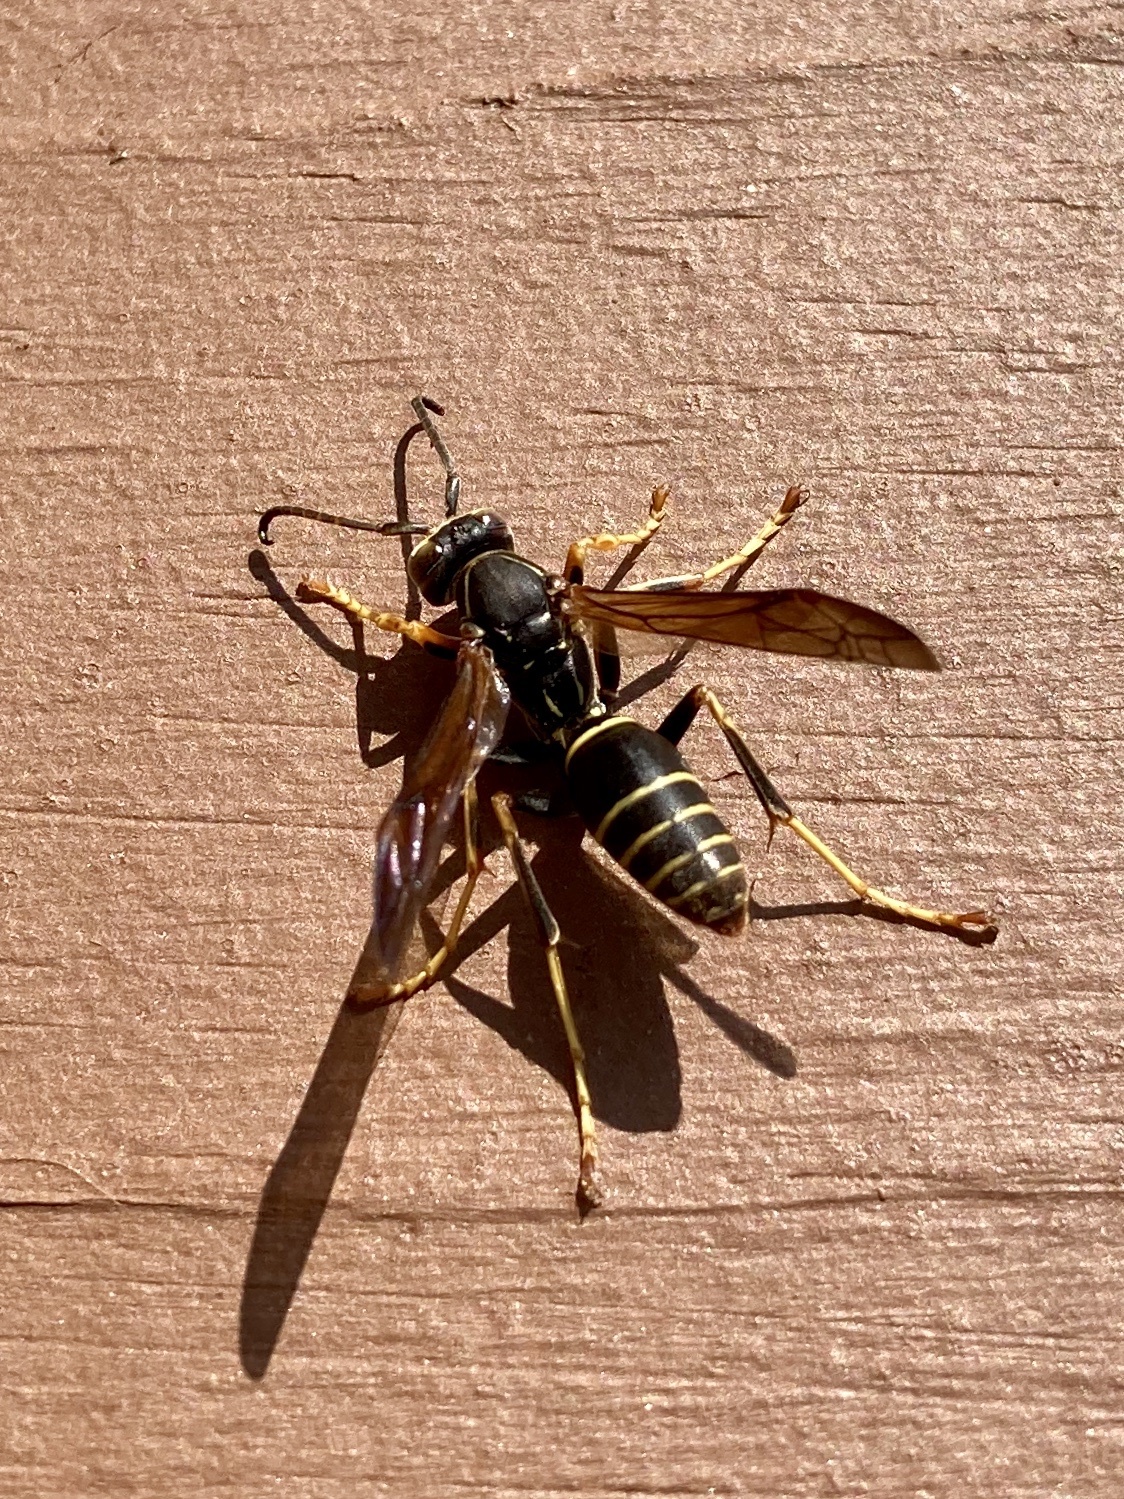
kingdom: Animalia
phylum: Arthropoda
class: Insecta
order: Hymenoptera
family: Eumenidae
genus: Polistes
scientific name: Polistes fuscatus
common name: Dark paper wasp
